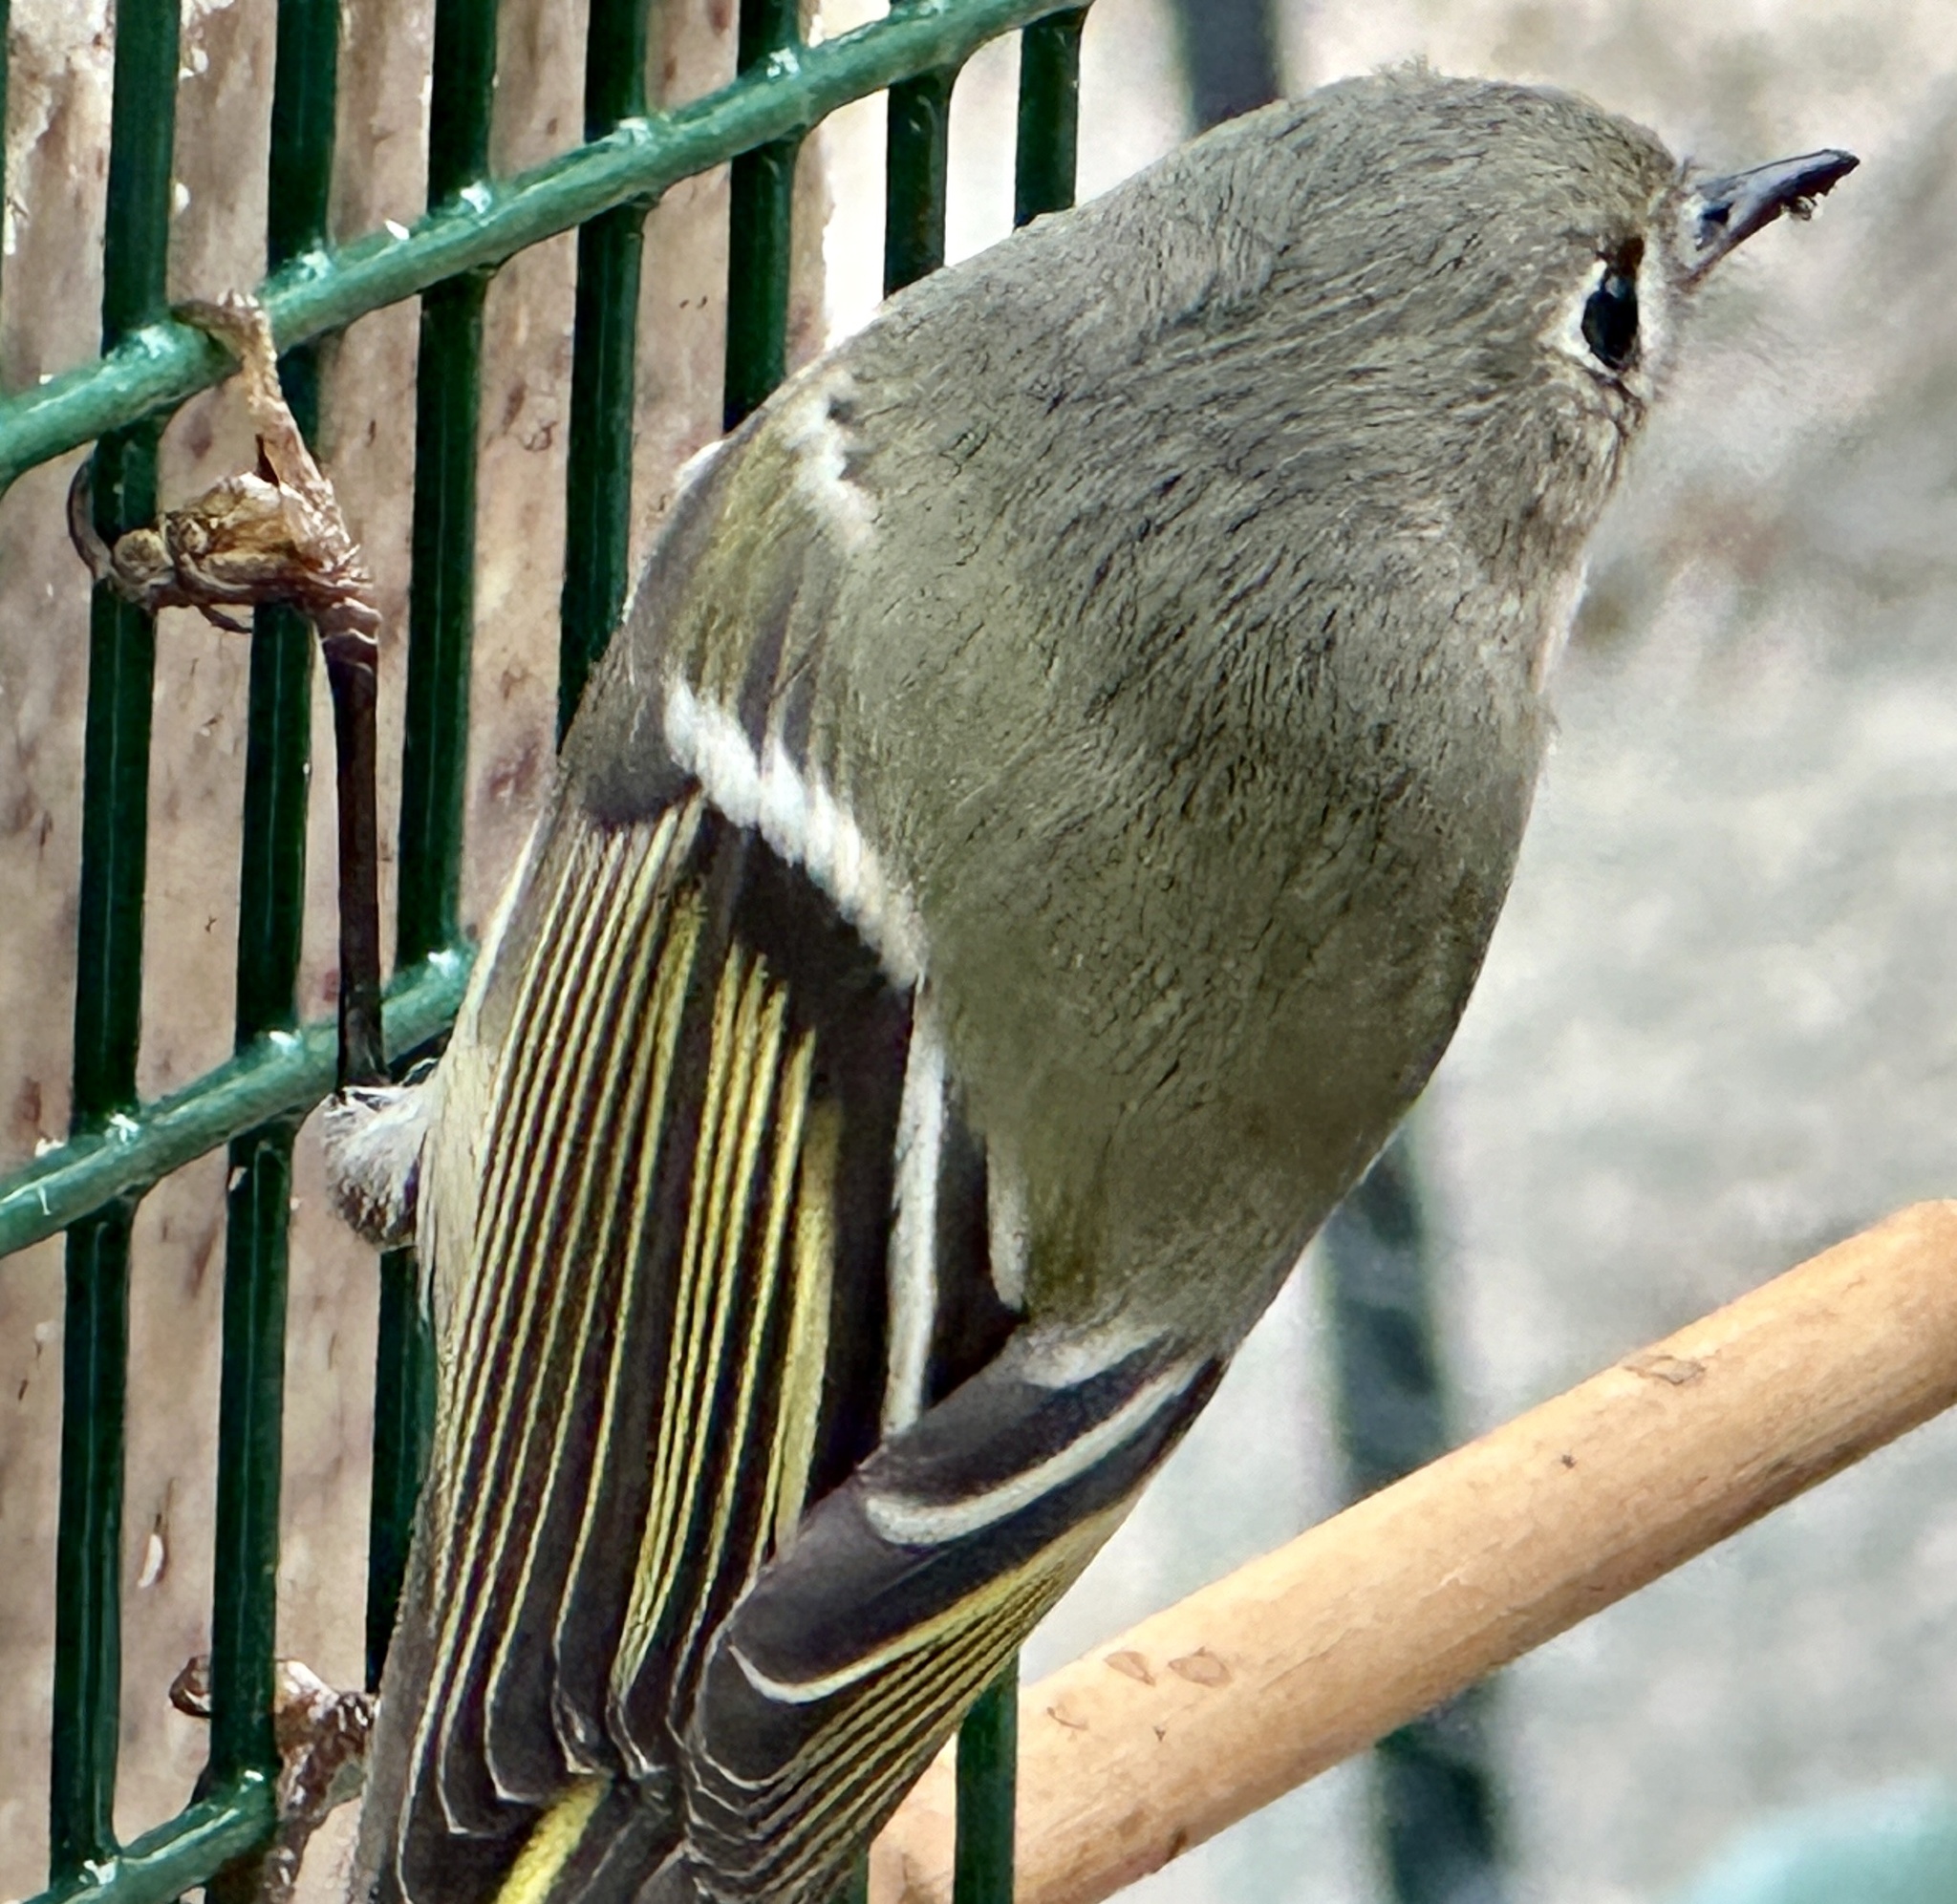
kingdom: Animalia
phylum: Chordata
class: Aves
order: Passeriformes
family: Regulidae
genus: Regulus
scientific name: Regulus calendula
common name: Ruby-crowned kinglet
